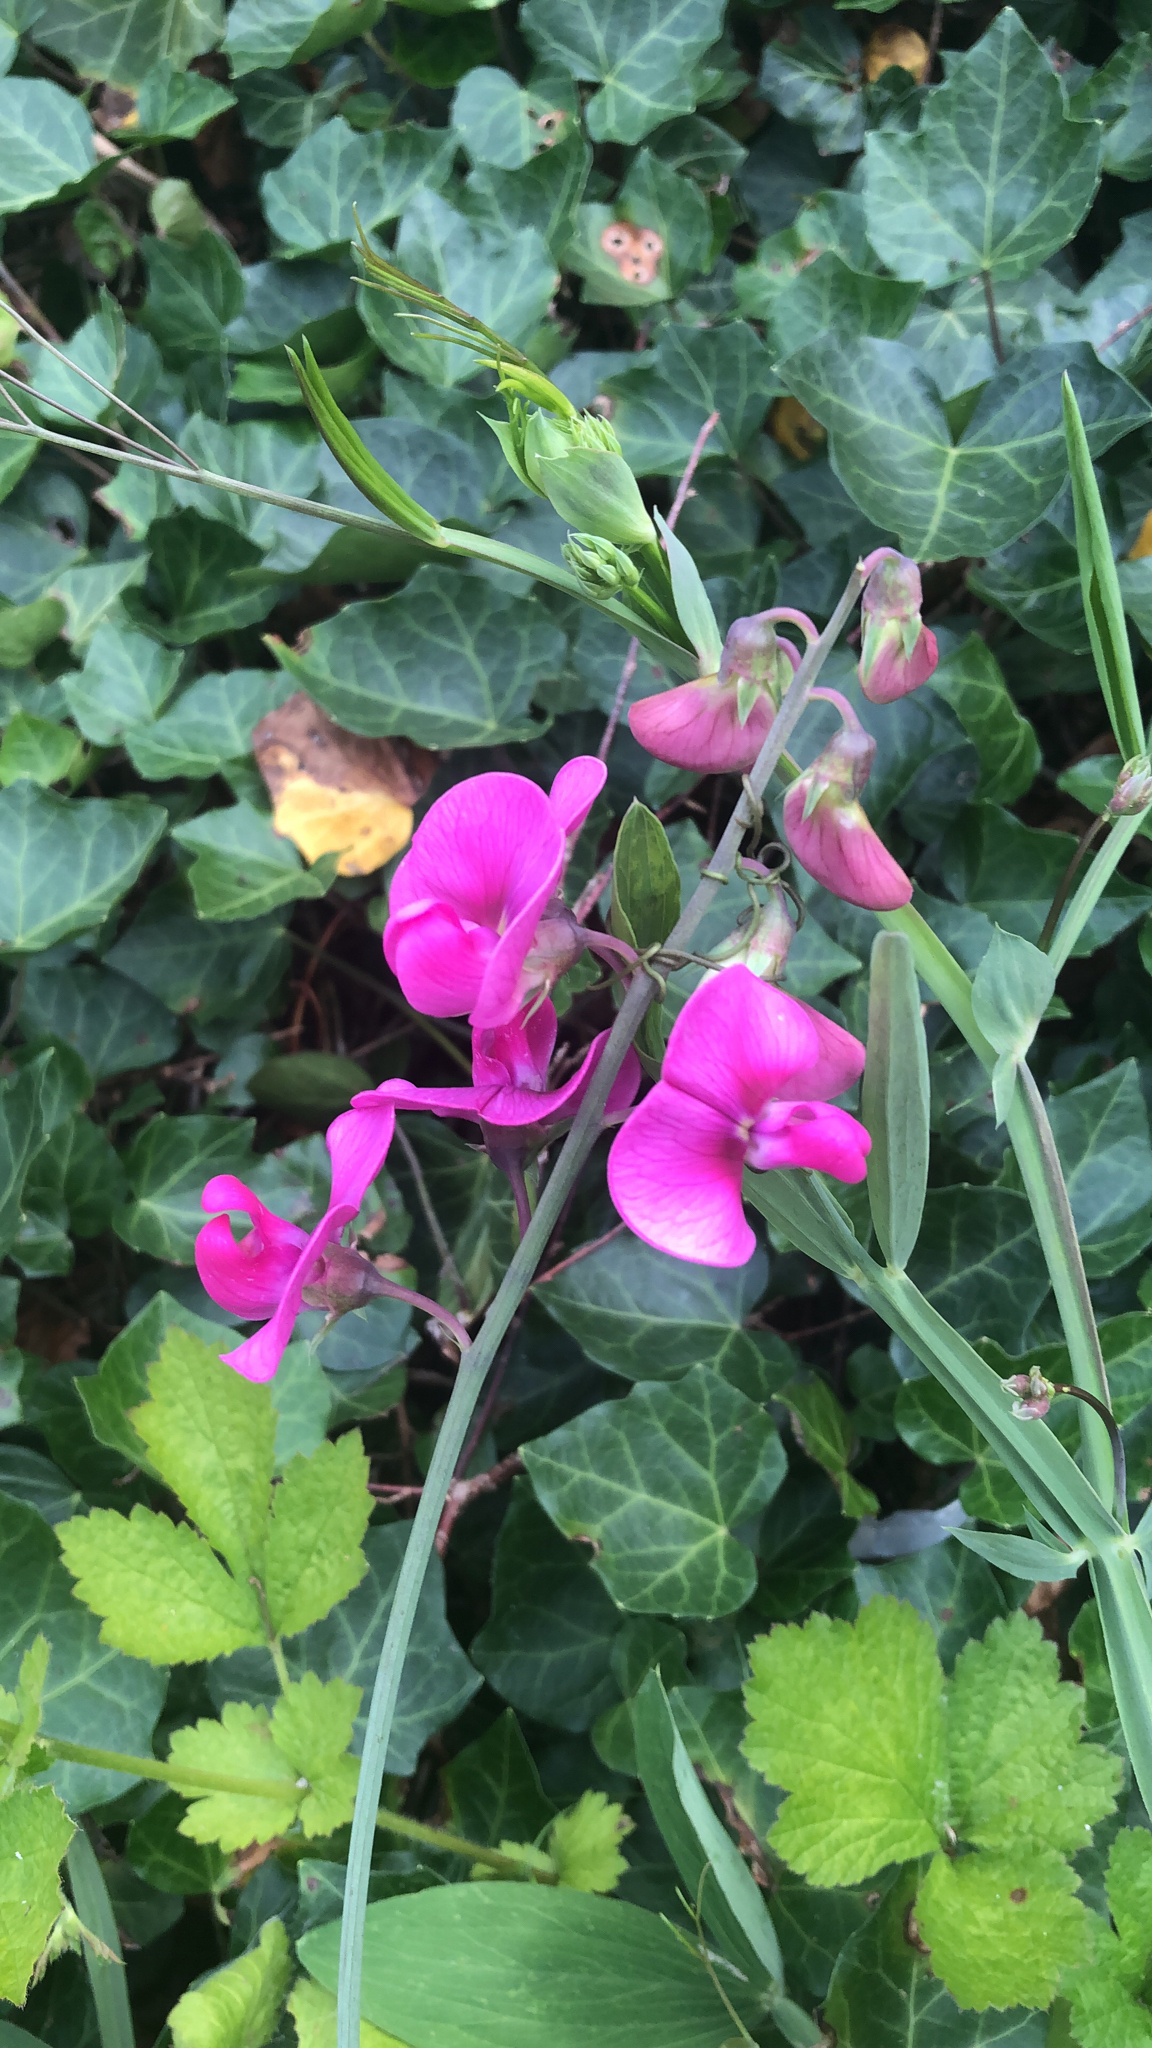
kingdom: Plantae
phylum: Tracheophyta
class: Magnoliopsida
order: Fabales
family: Fabaceae
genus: Lathyrus
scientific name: Lathyrus latifolius
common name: Perennial pea
